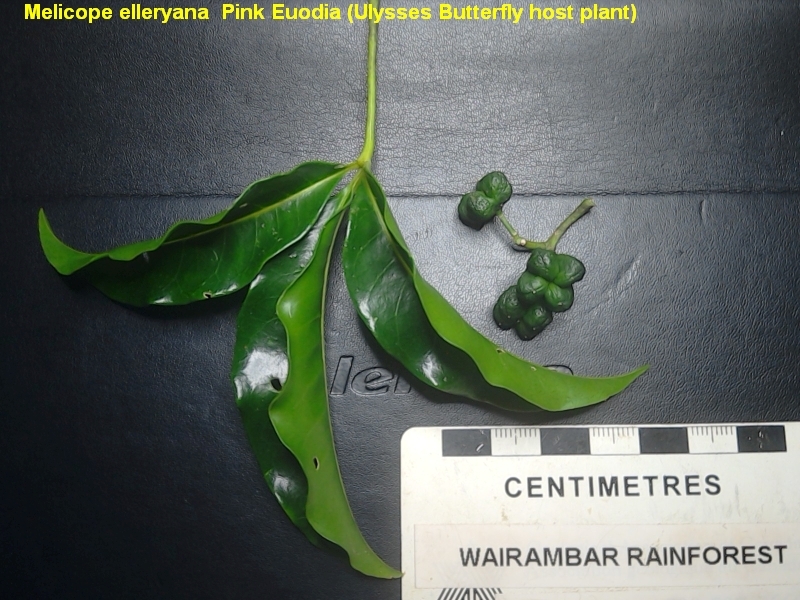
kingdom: Plantae
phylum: Tracheophyta
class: Magnoliopsida
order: Sapindales
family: Rutaceae
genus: Melicope
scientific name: Melicope elleryana
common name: Pink euodia
